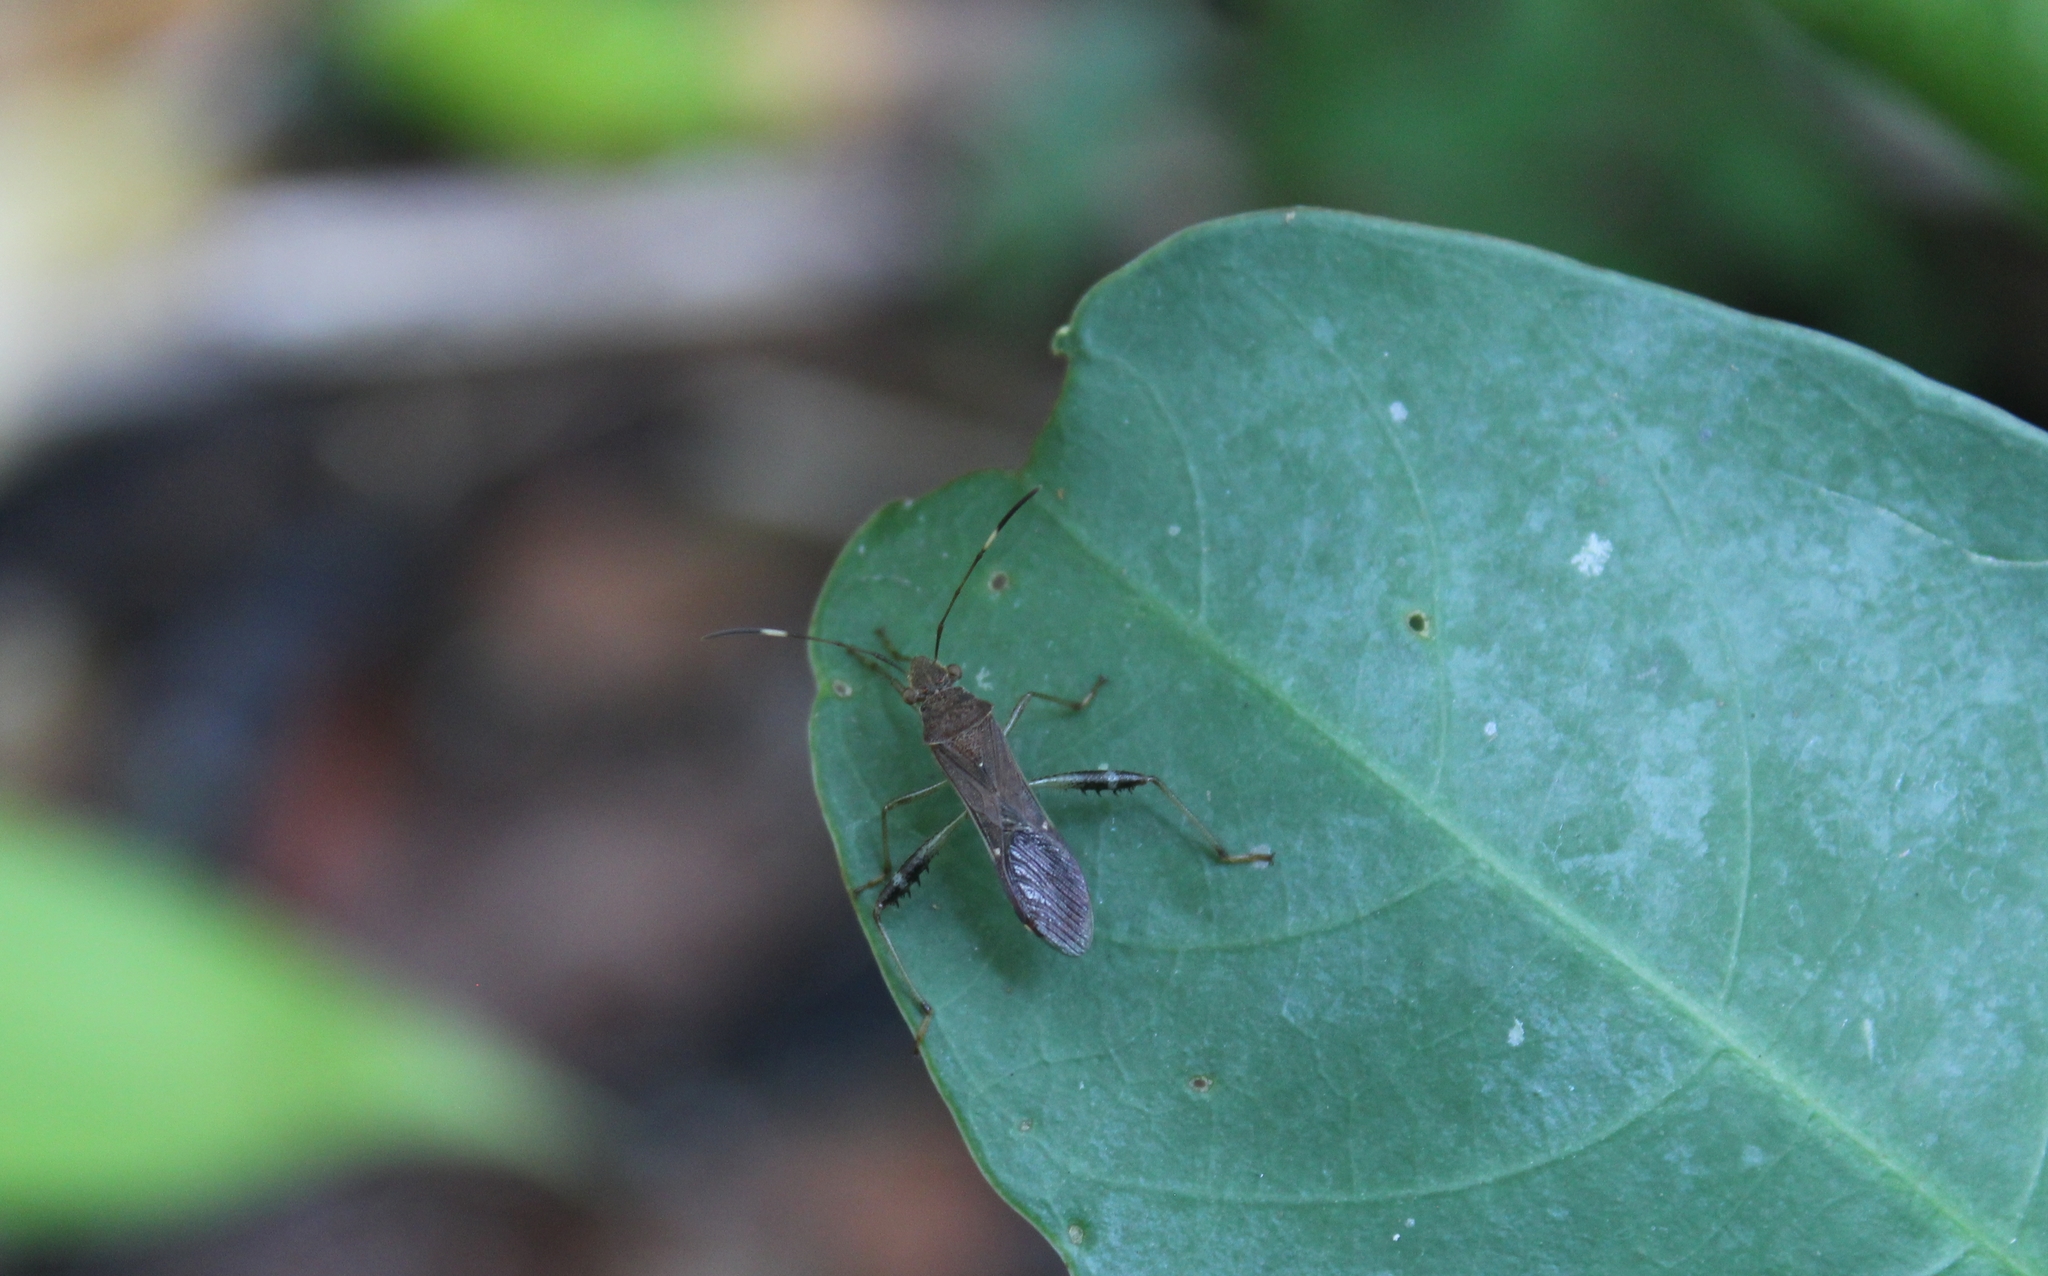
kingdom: Animalia
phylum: Arthropoda
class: Insecta
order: Hemiptera
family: Alydidae
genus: Burtinus
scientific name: Burtinus notatipennis
